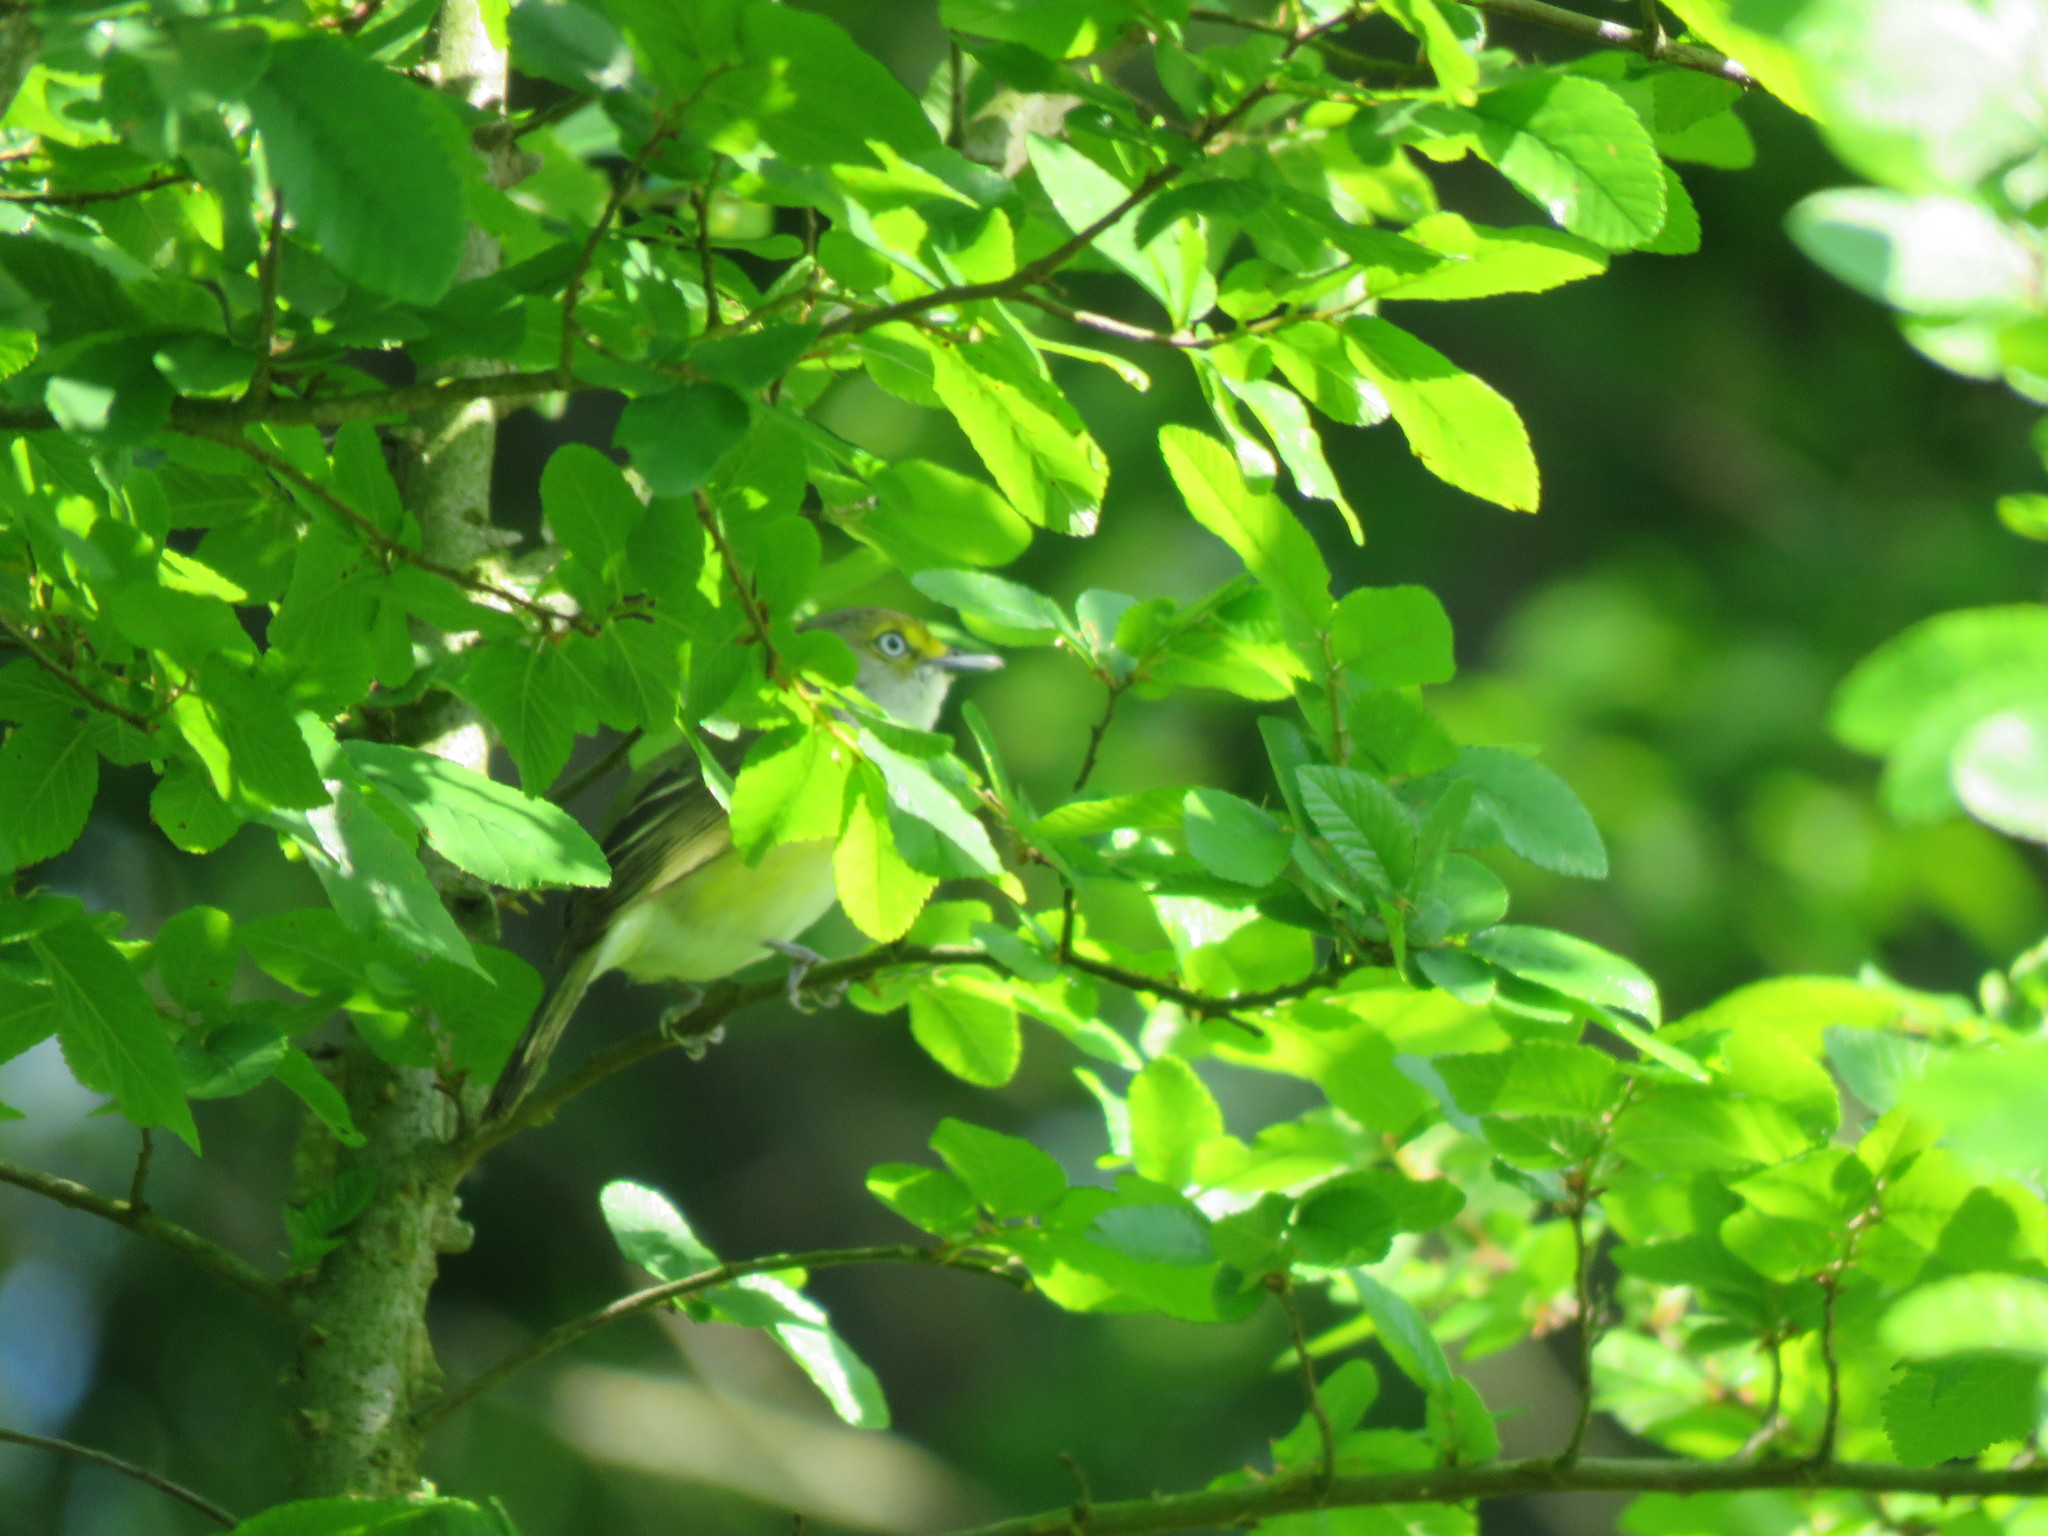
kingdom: Animalia
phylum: Chordata
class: Aves
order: Passeriformes
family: Vireonidae
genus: Vireo
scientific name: Vireo griseus
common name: White-eyed vireo
